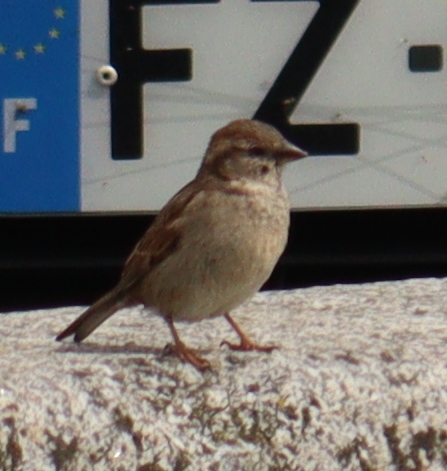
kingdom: Animalia
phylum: Chordata
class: Aves
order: Passeriformes
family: Passeridae
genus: Passer
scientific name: Passer domesticus
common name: House sparrow
